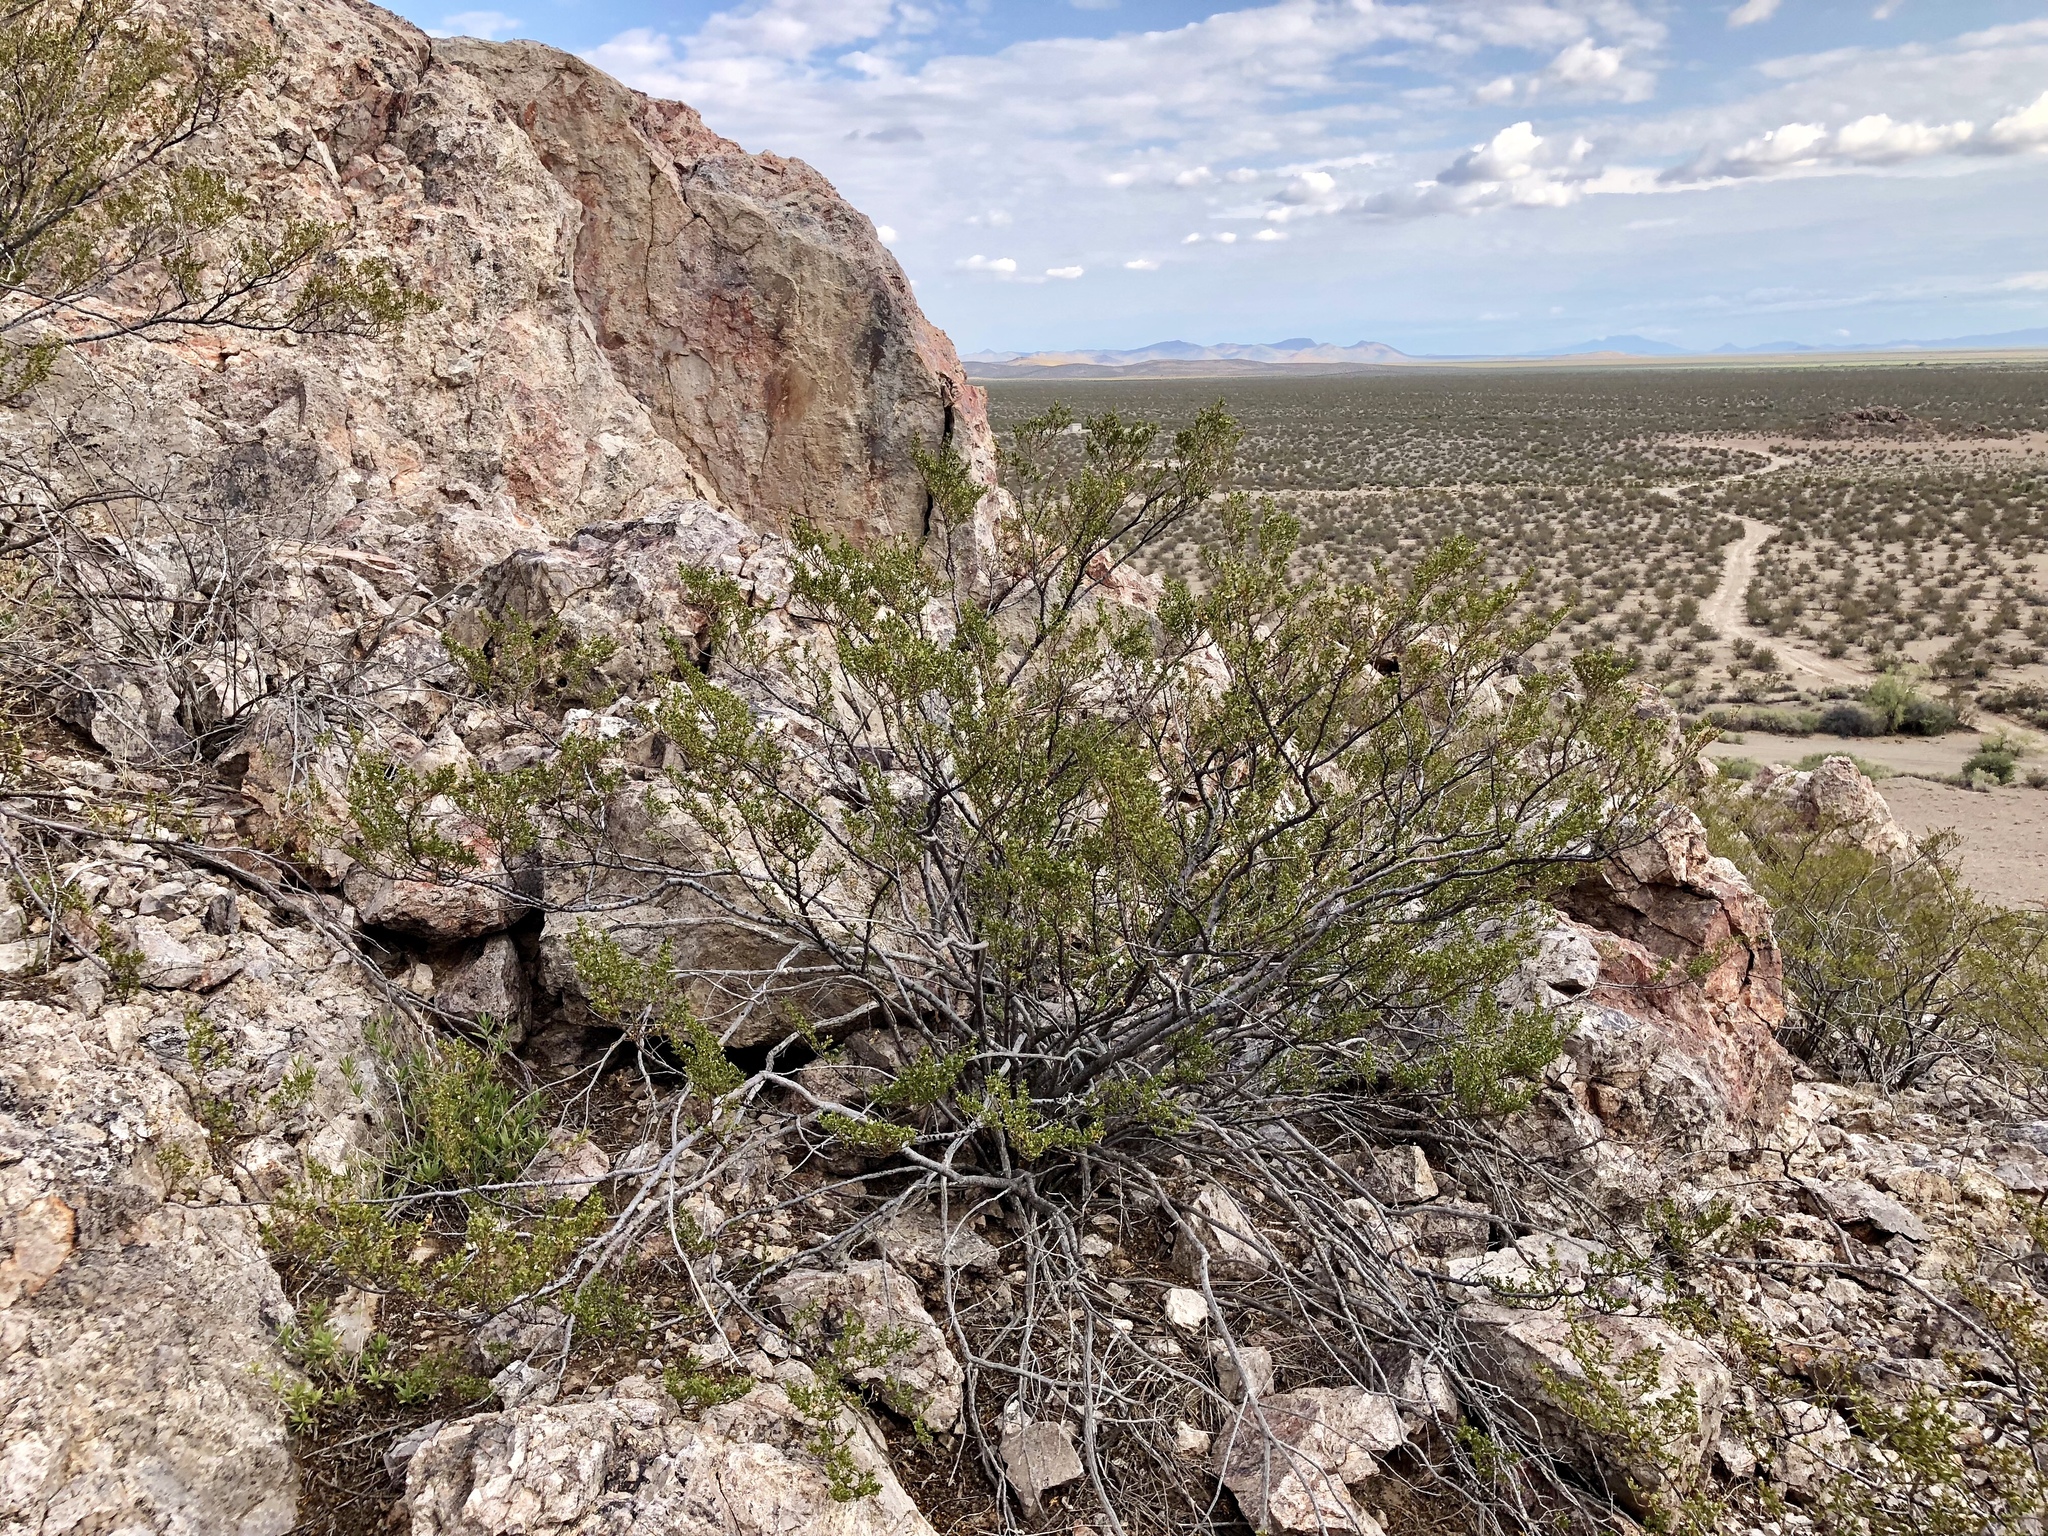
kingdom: Plantae
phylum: Tracheophyta
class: Magnoliopsida
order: Zygophyllales
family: Zygophyllaceae
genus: Larrea
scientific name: Larrea tridentata
